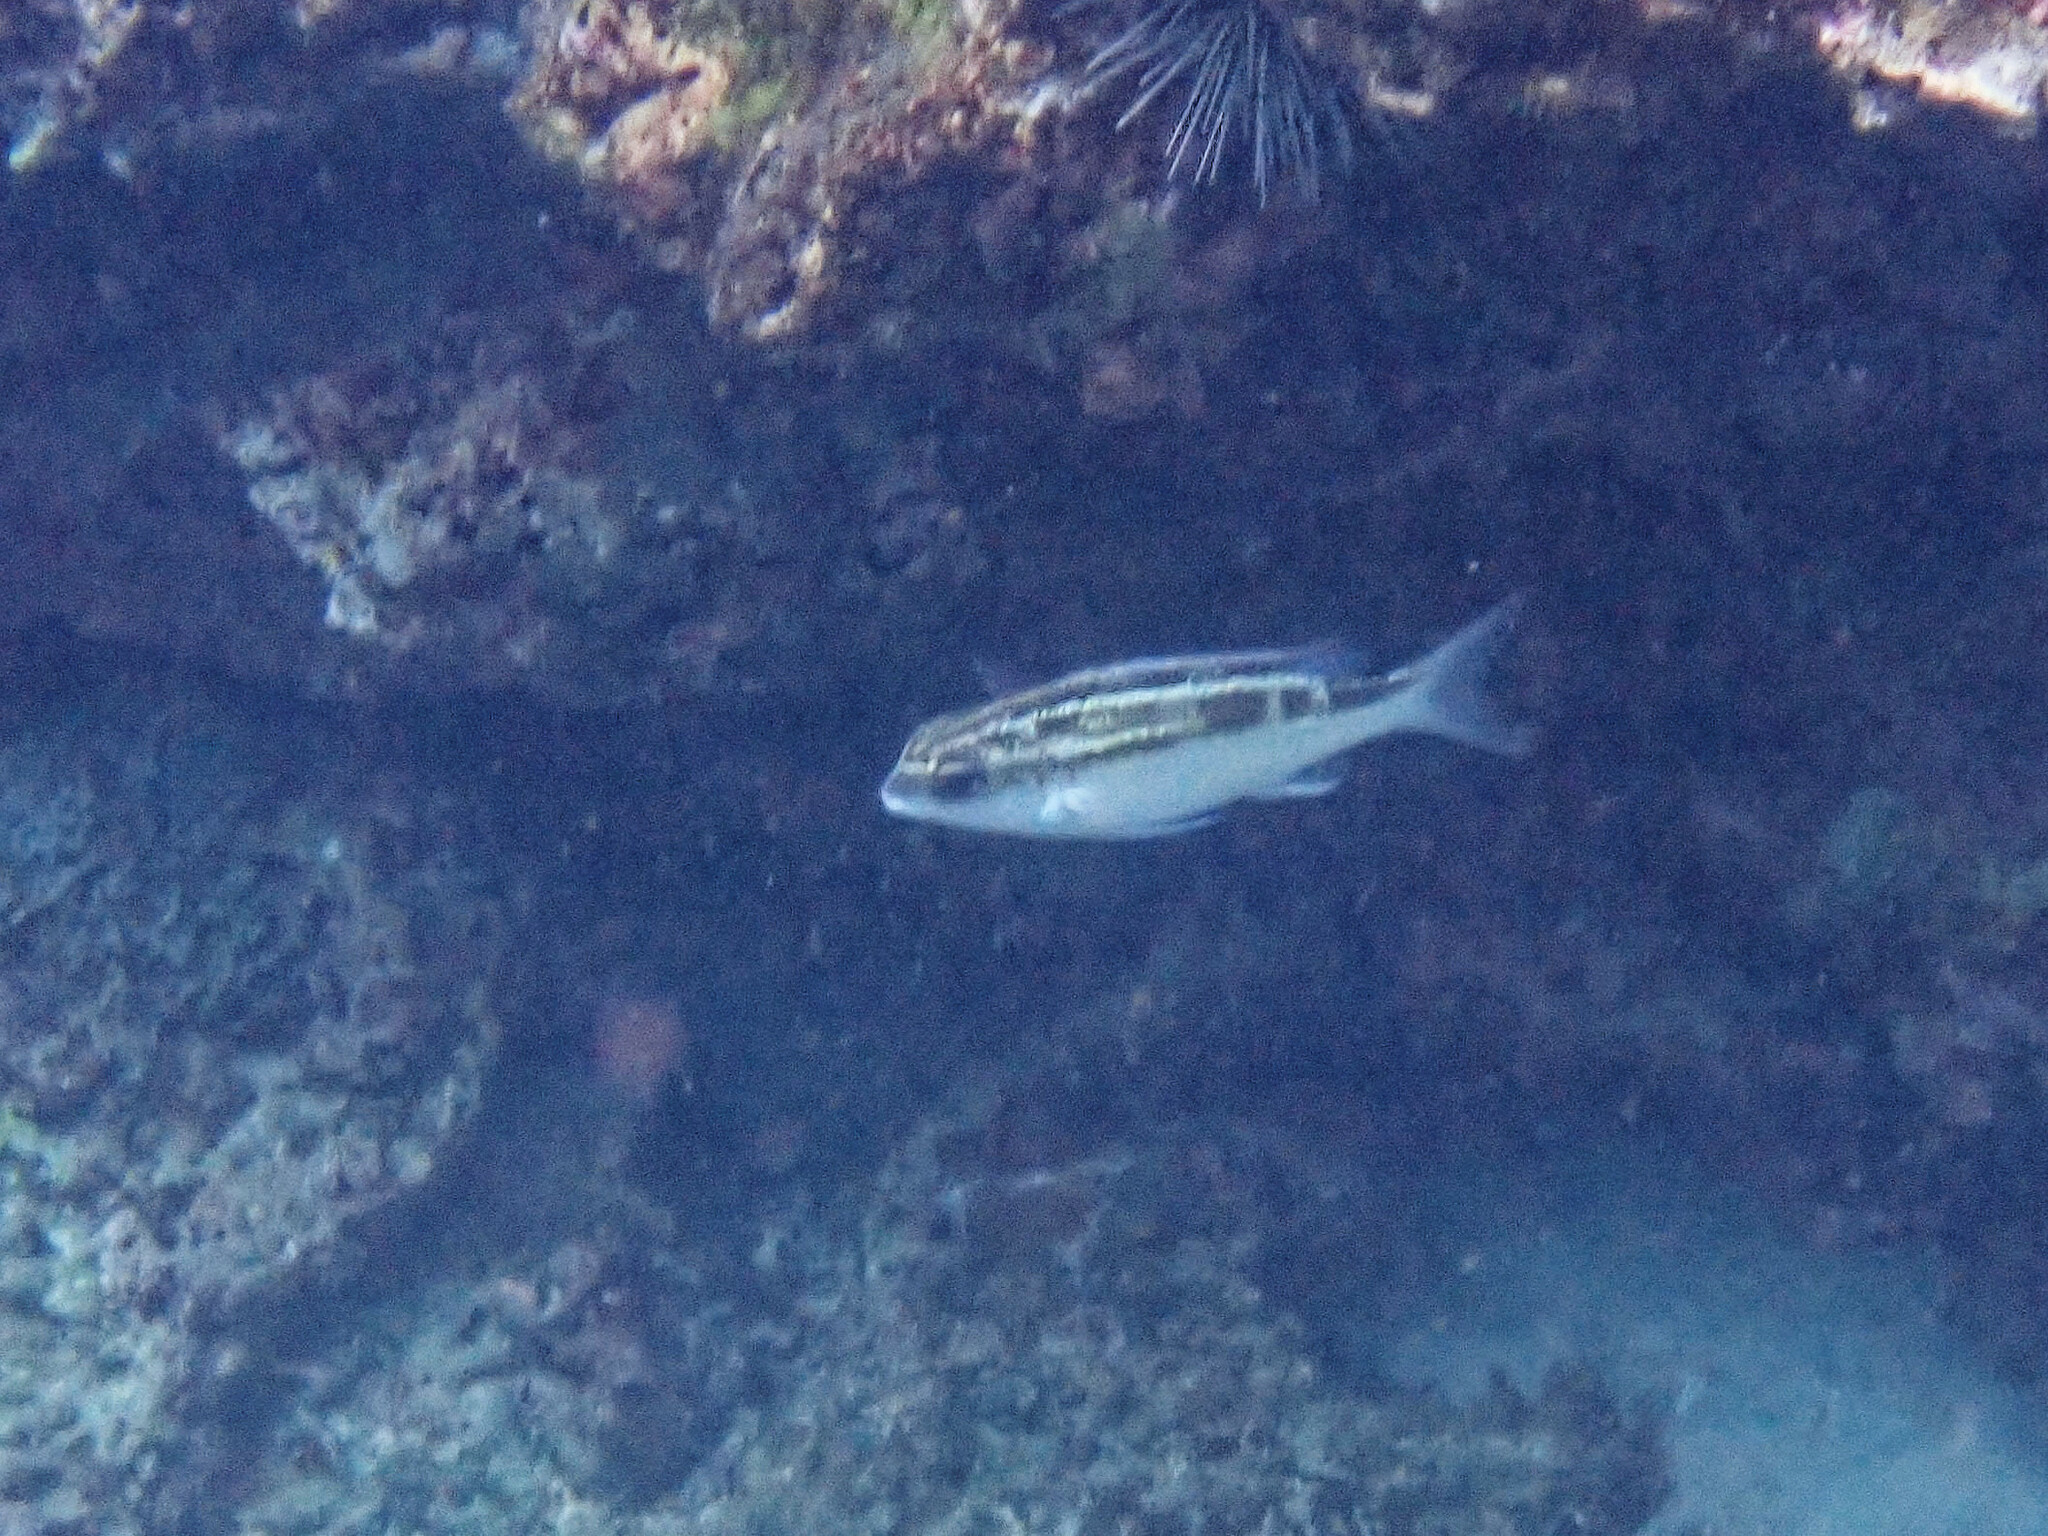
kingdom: Animalia
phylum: Chordata
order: Perciformes
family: Nemipteridae
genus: Scolopsis
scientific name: Scolopsis lineata
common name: Striped monocle bream
